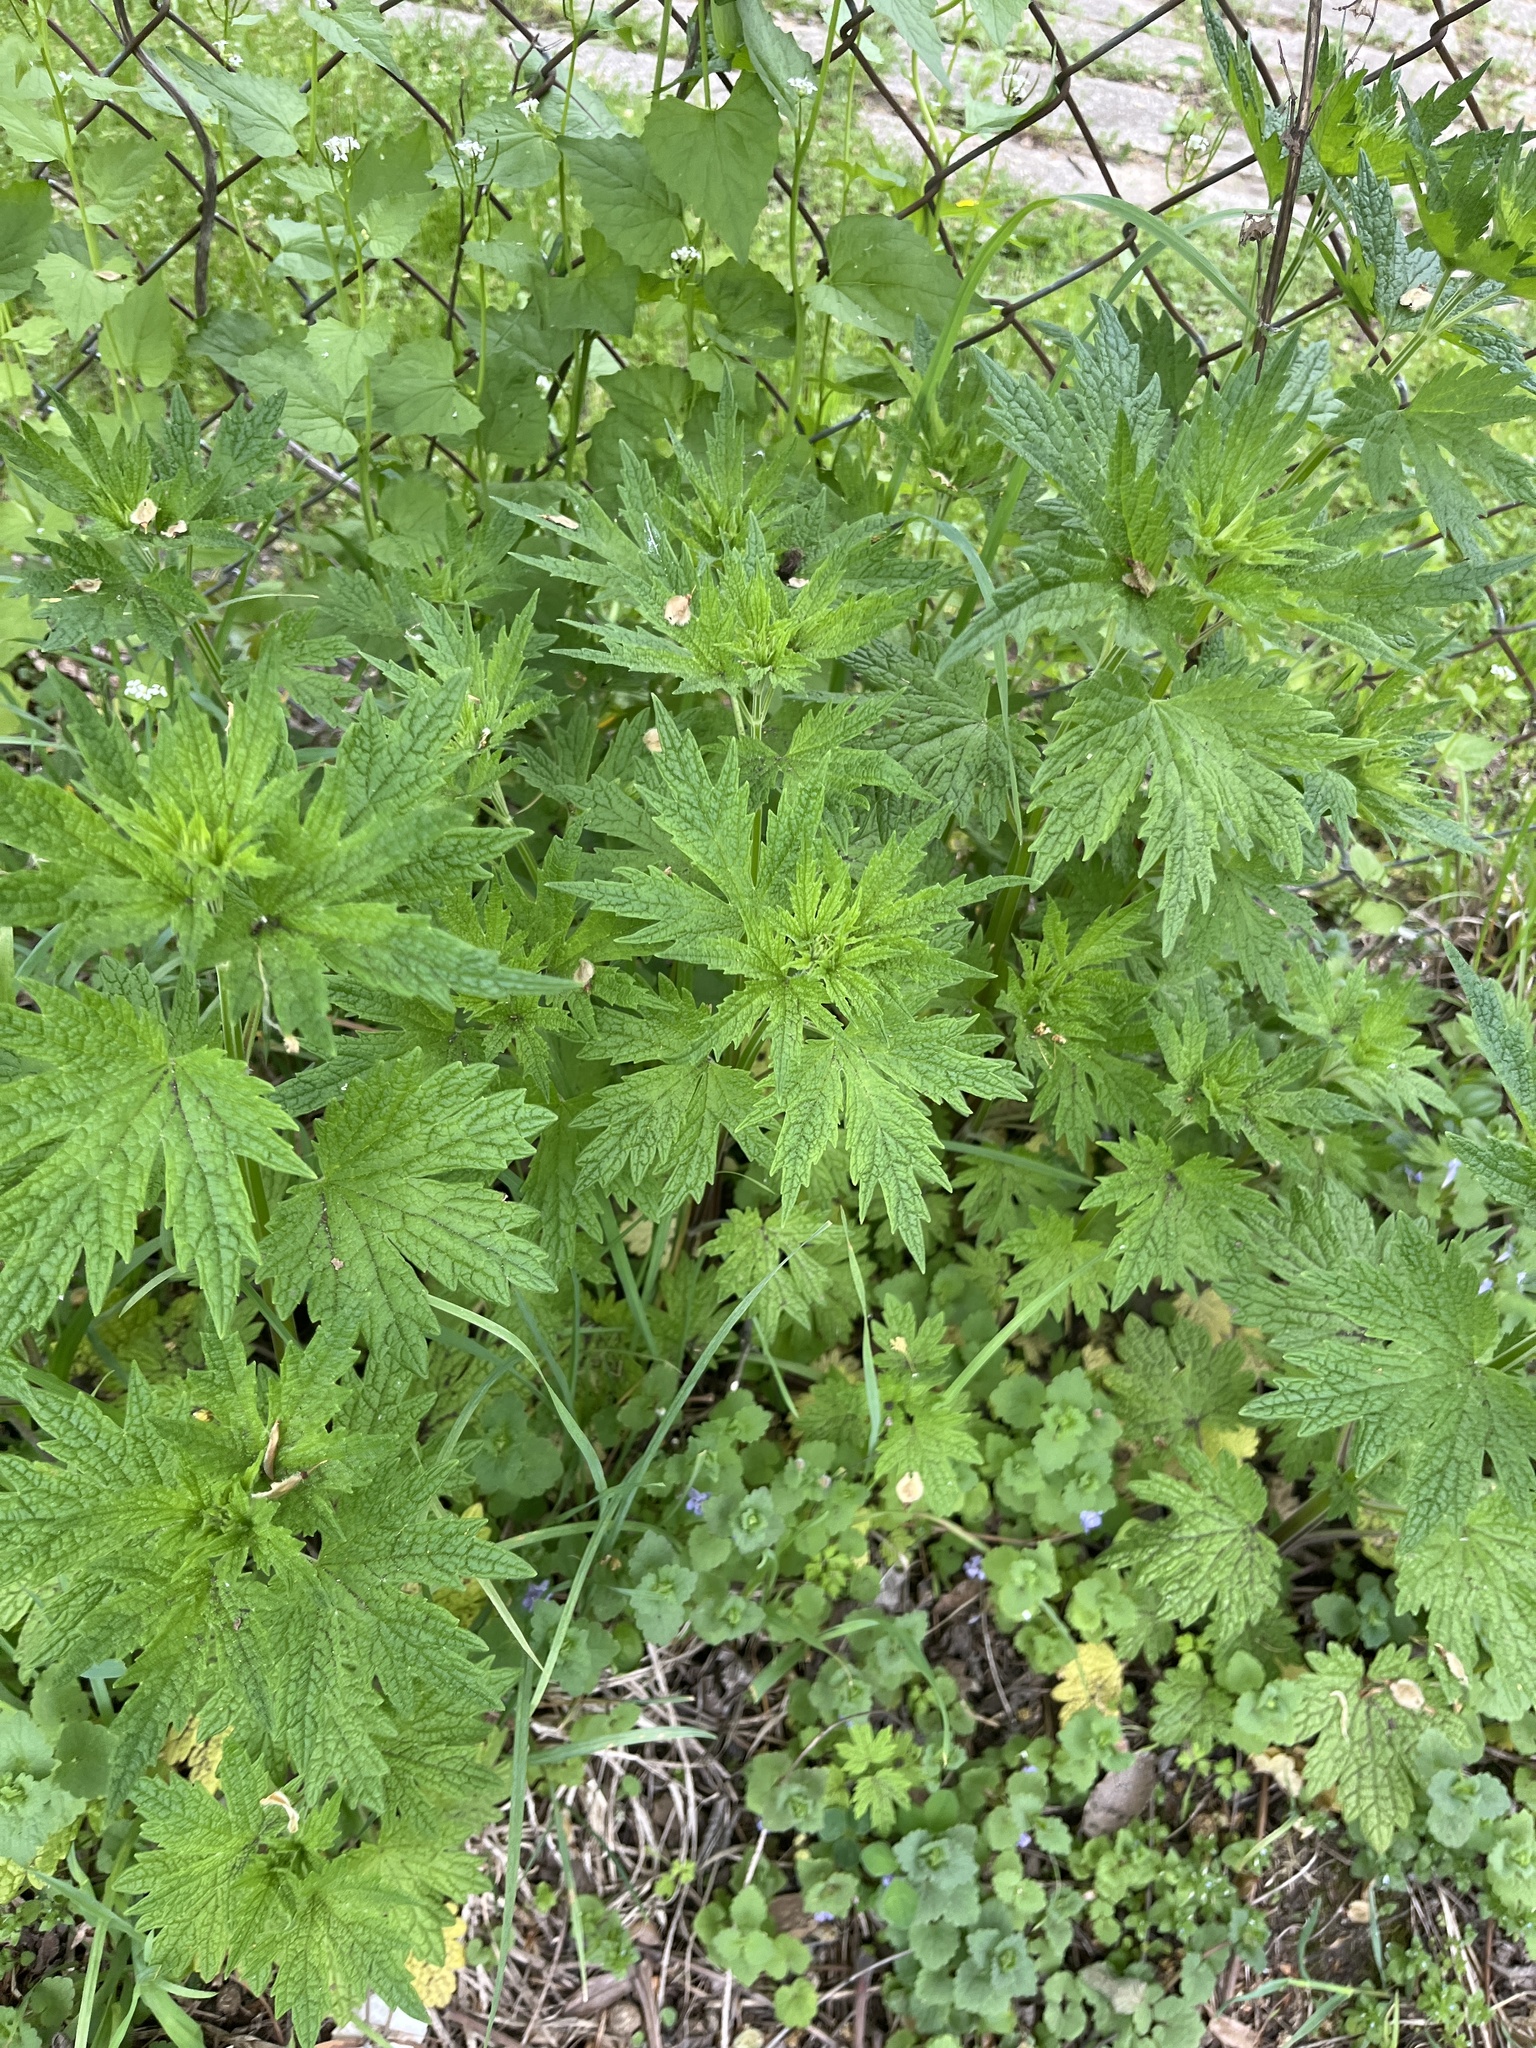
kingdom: Plantae
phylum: Tracheophyta
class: Magnoliopsida
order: Lamiales
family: Lamiaceae
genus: Leonurus
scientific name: Leonurus cardiaca
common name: Motherwort
